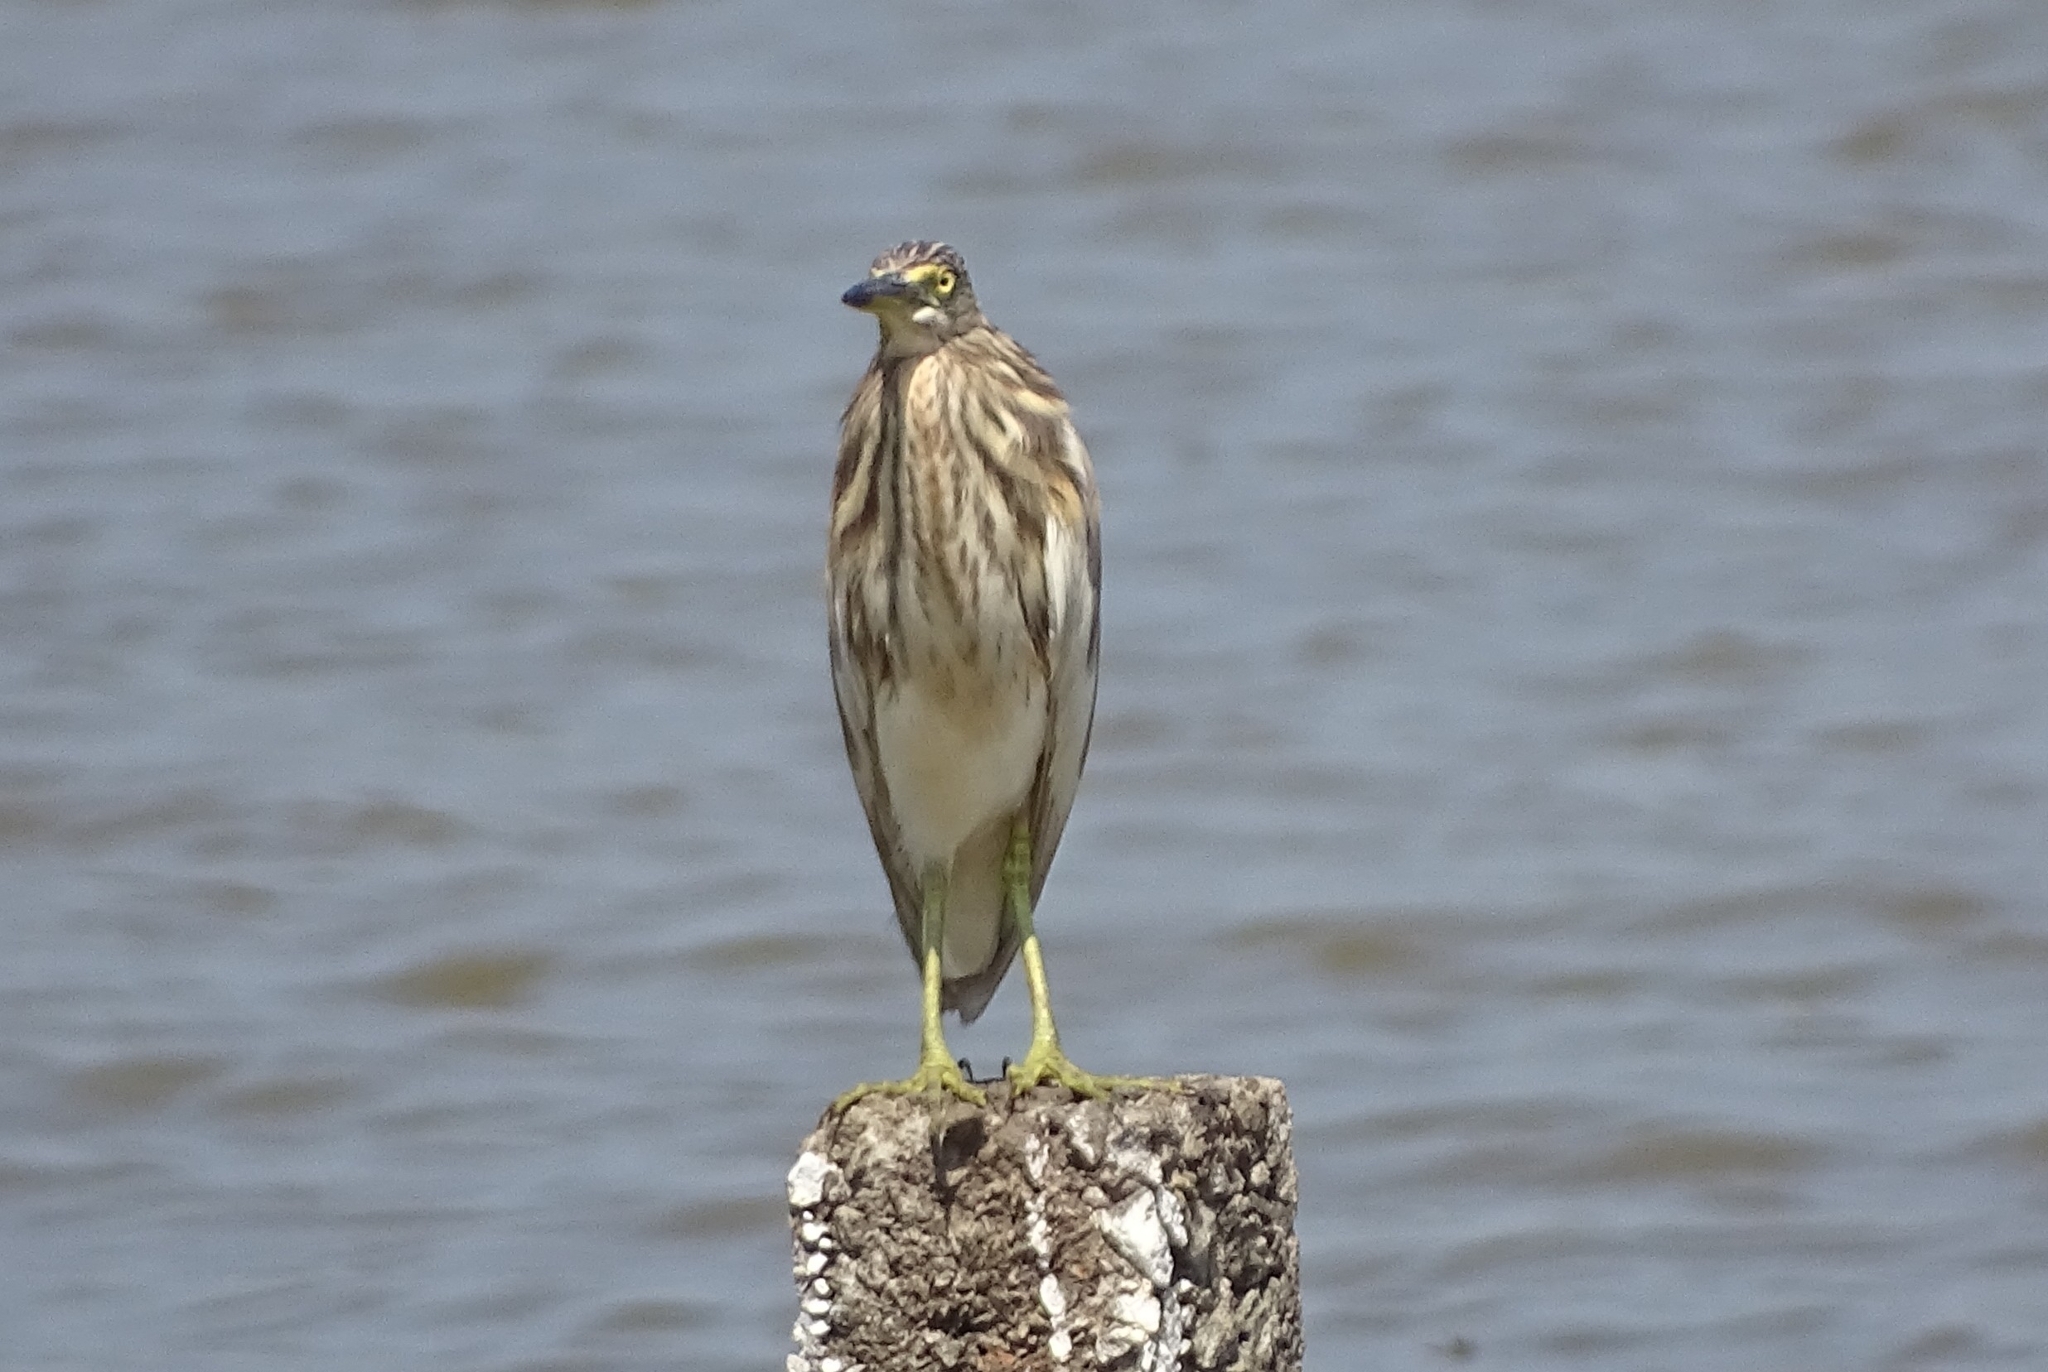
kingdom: Animalia
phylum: Chordata
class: Aves
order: Pelecaniformes
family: Ardeidae
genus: Ardeola
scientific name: Ardeola grayii
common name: Indian pond heron
